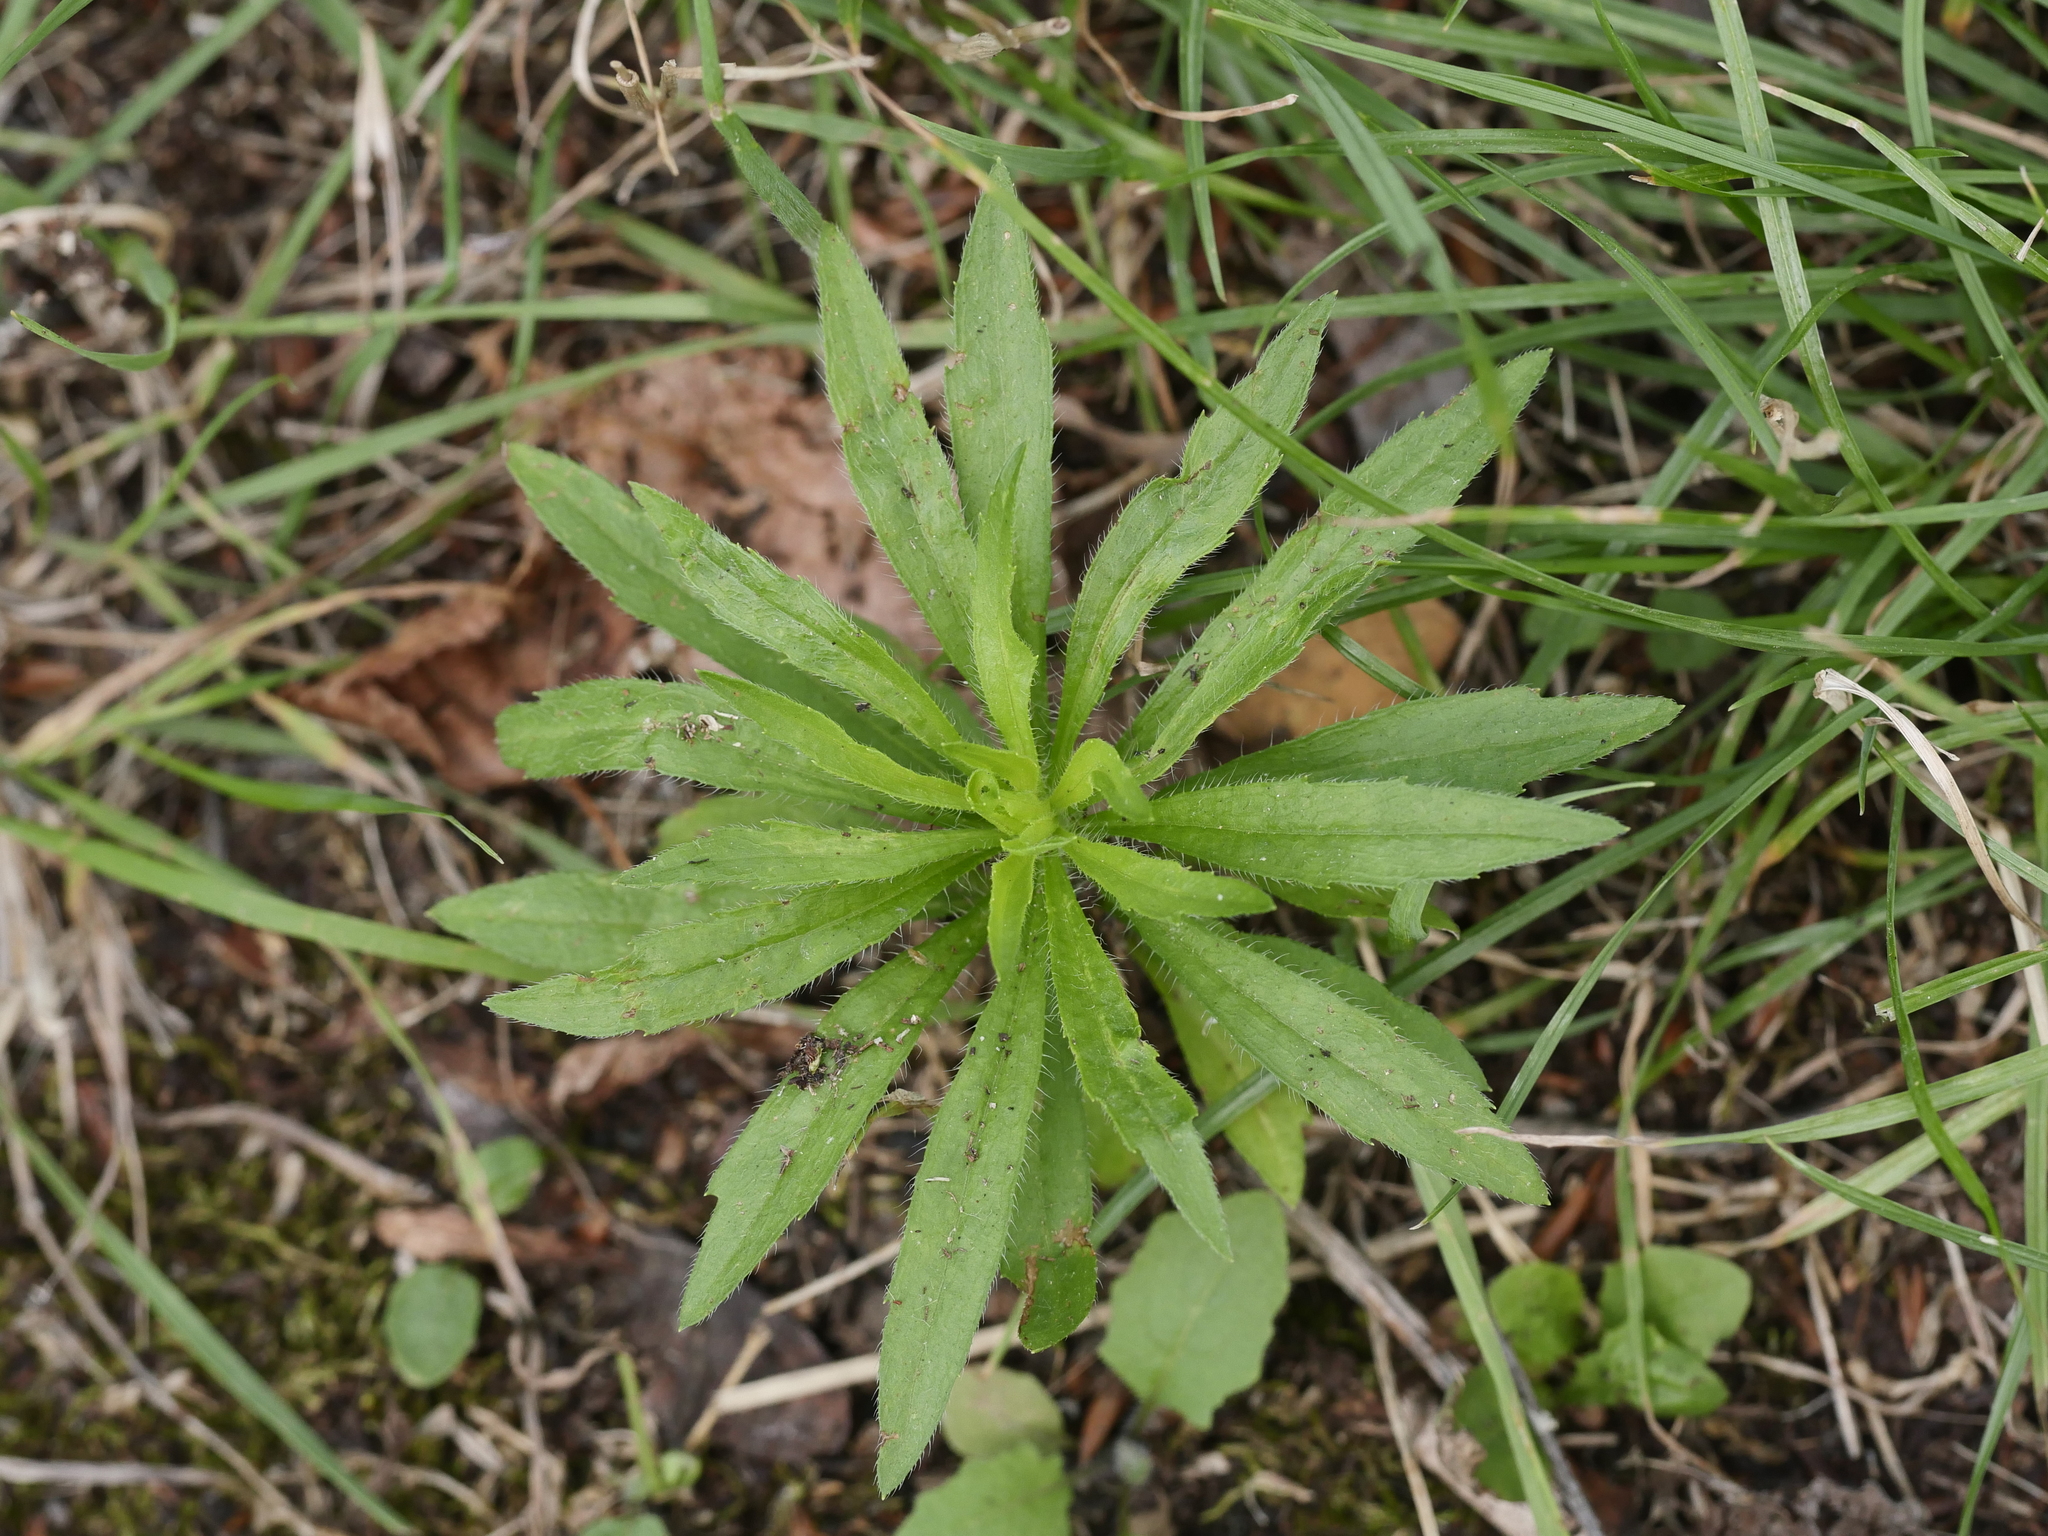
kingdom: Plantae
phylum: Tracheophyta
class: Magnoliopsida
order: Asterales
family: Asteraceae
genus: Erigeron
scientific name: Erigeron canadensis
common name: Canadian fleabane
